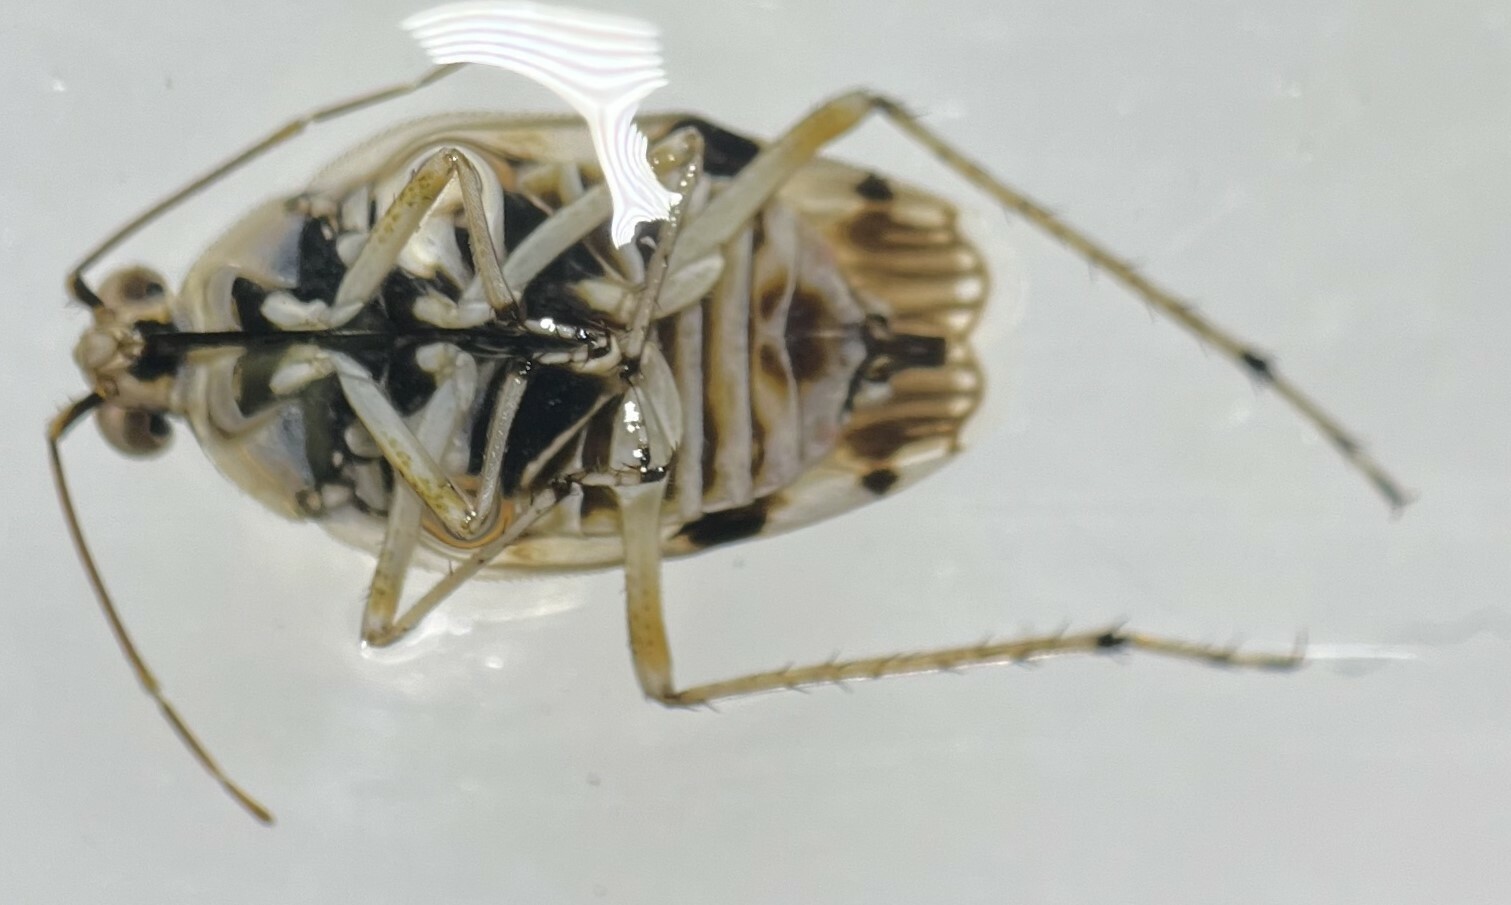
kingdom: Animalia
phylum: Arthropoda
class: Insecta
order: Hemiptera
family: Saldidae
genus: Pentacora
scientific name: Pentacora signoreti
